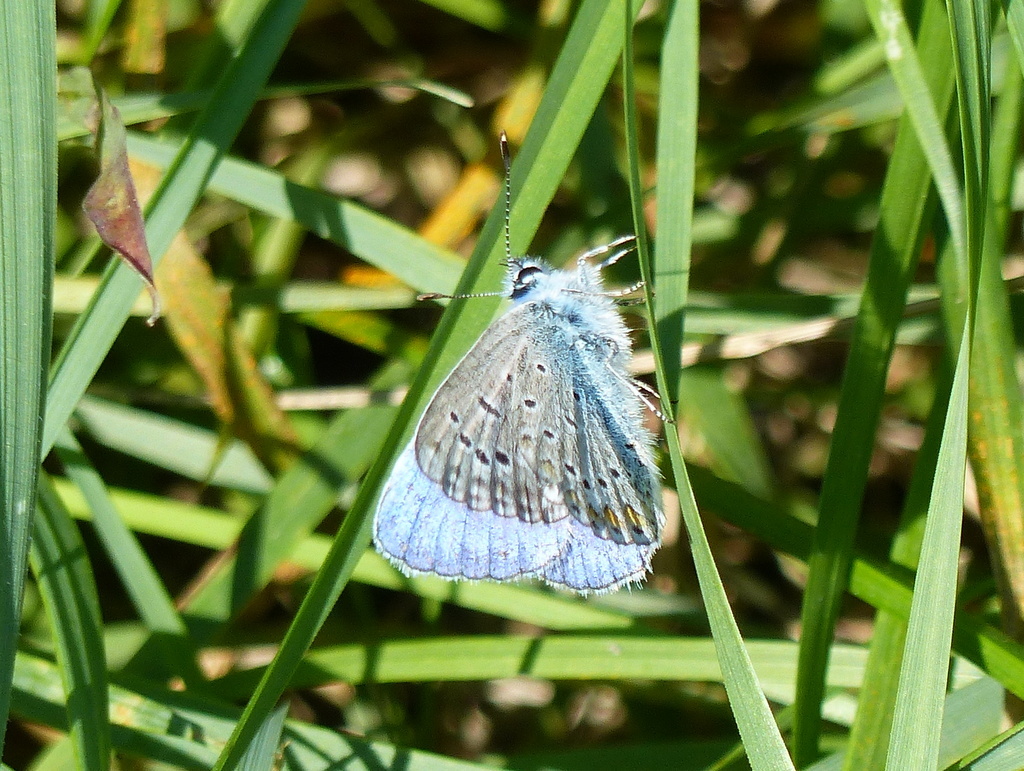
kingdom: Animalia
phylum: Arthropoda
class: Insecta
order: Lepidoptera
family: Lycaenidae
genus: Polyommatus
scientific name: Polyommatus icarus
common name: Common blue
